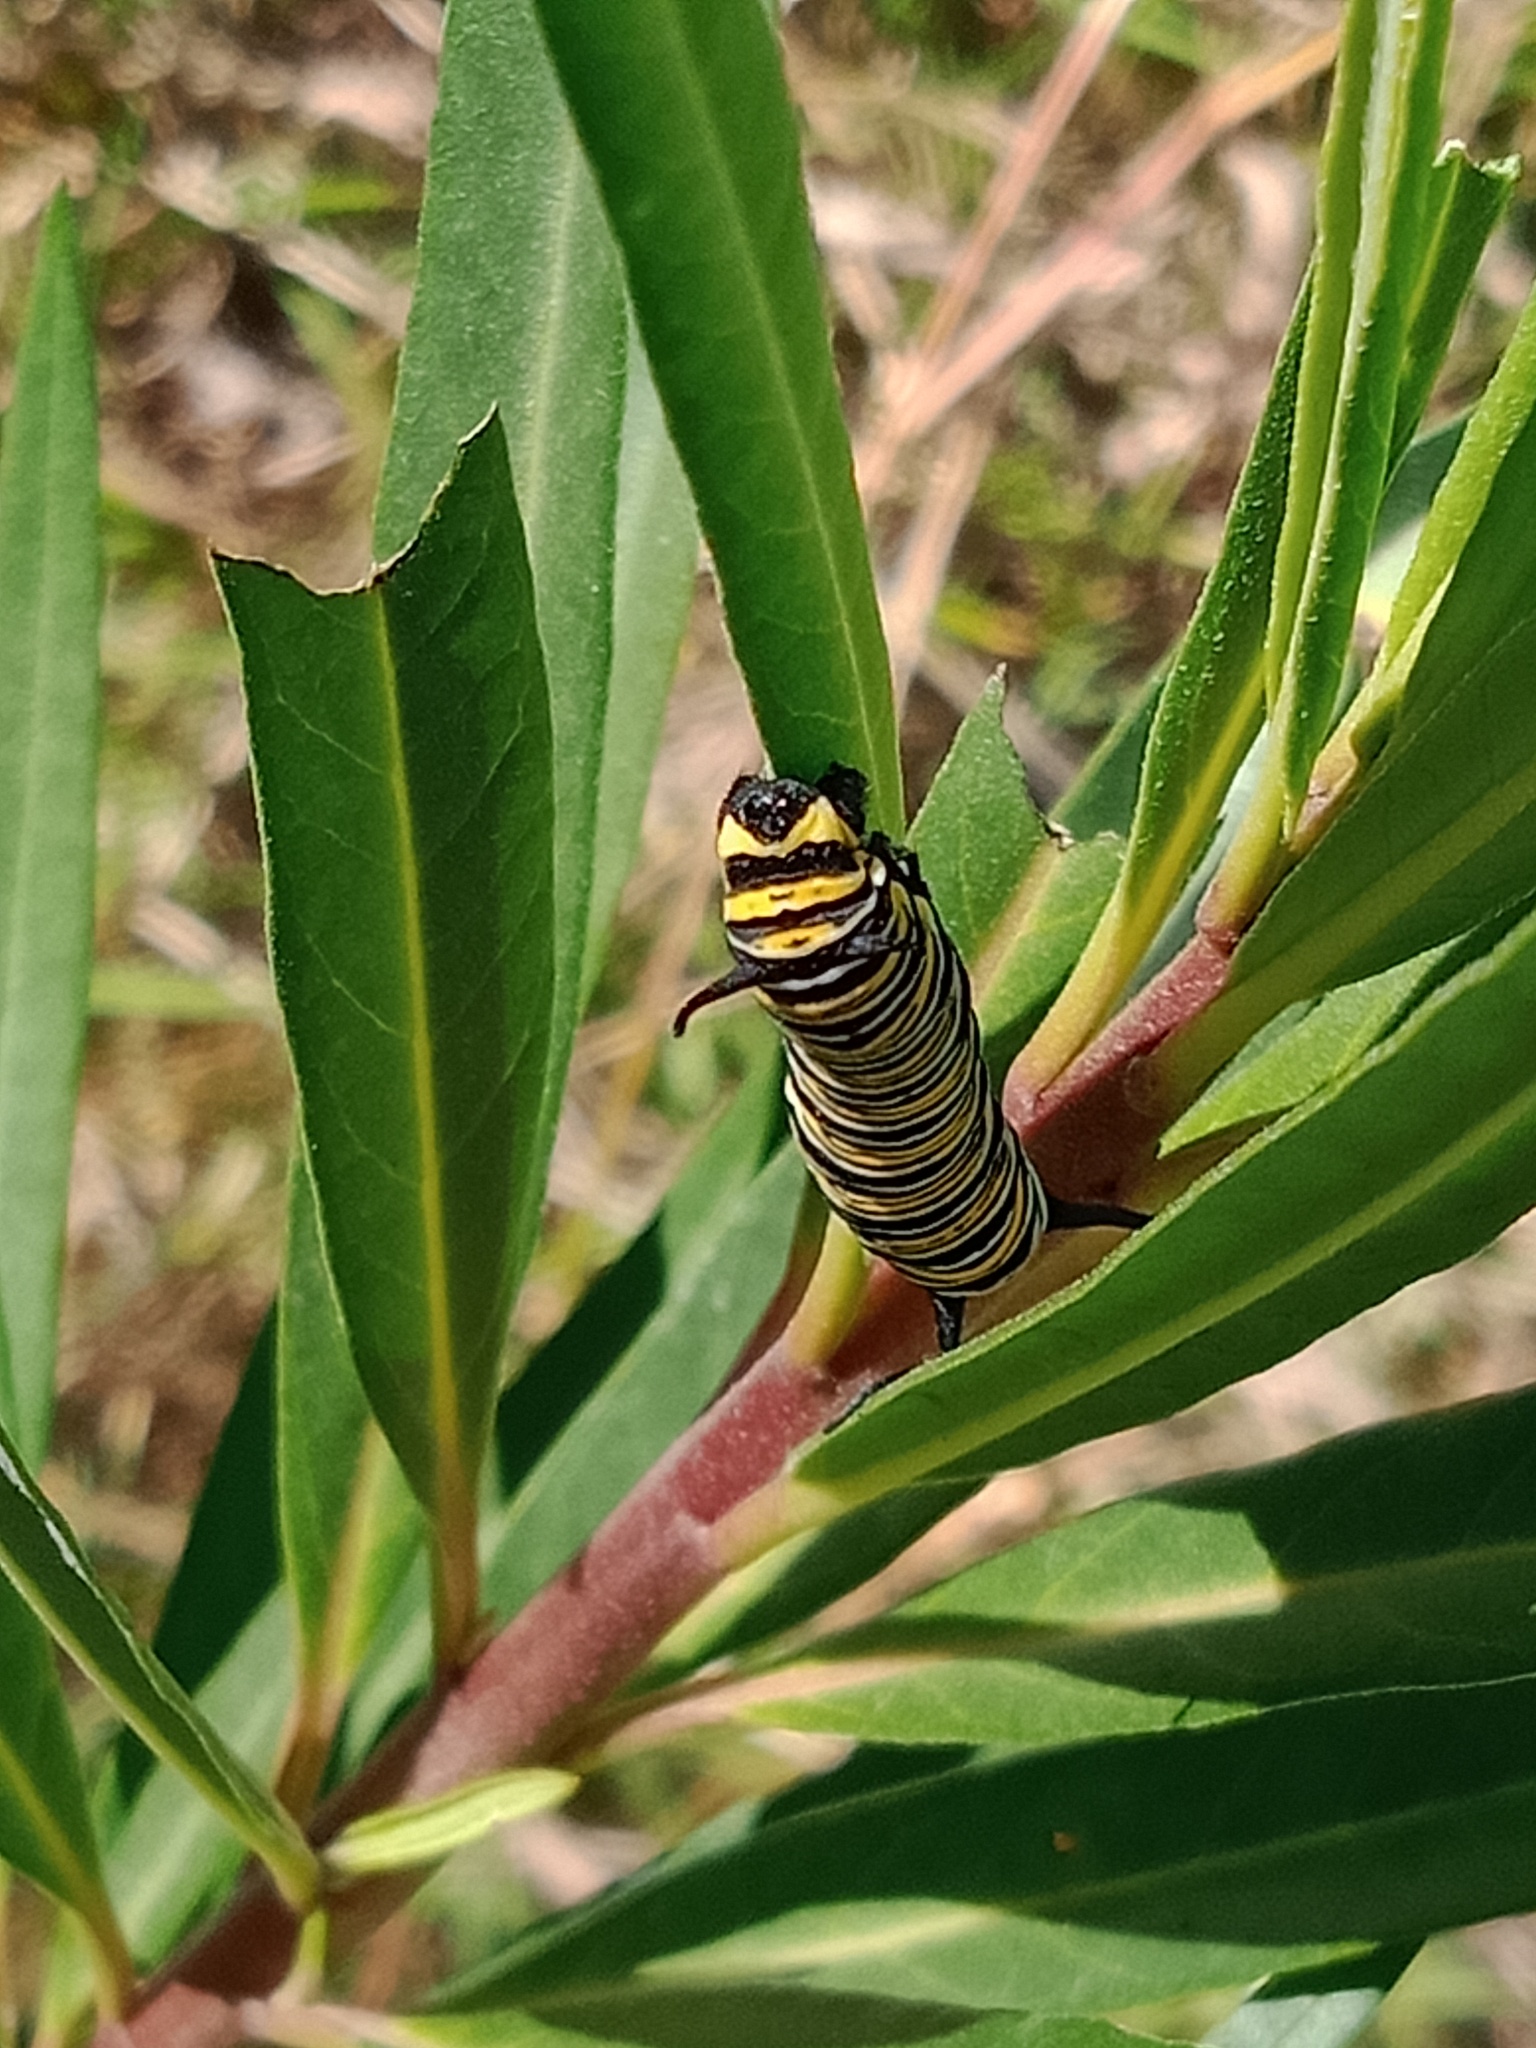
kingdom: Animalia
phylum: Arthropoda
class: Insecta
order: Lepidoptera
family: Nymphalidae
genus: Danaus
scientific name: Danaus plexippus
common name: Monarch
